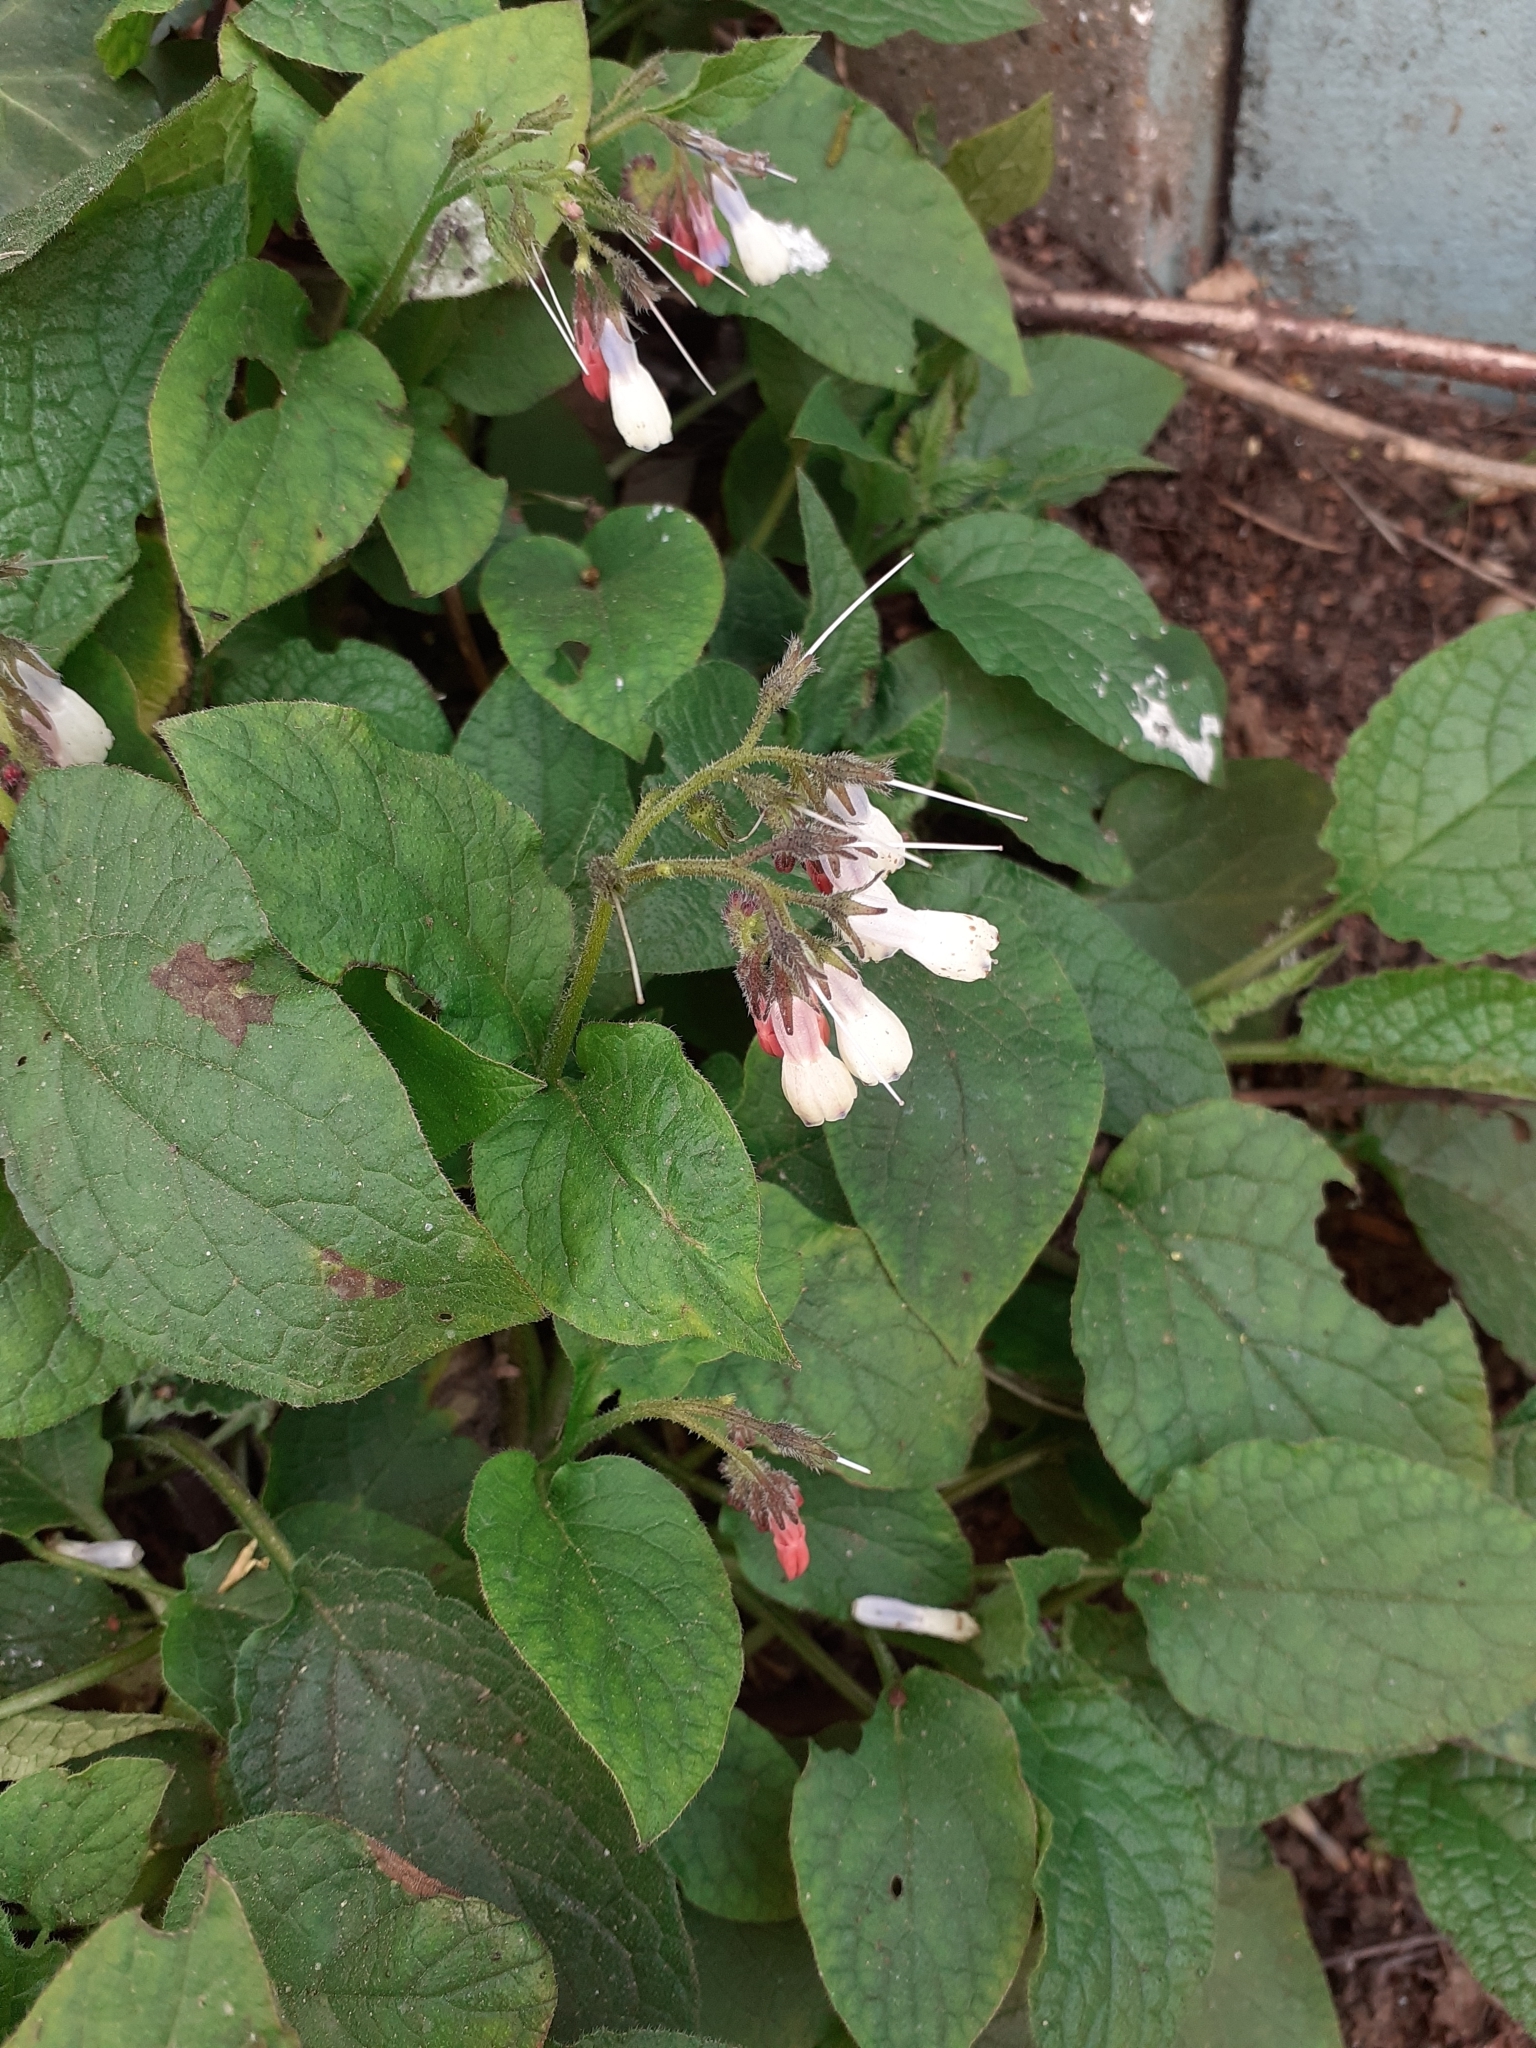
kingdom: Plantae
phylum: Tracheophyta
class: Magnoliopsida
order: Boraginales
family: Boraginaceae
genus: Symphytum
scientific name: Symphytum hidcotense
